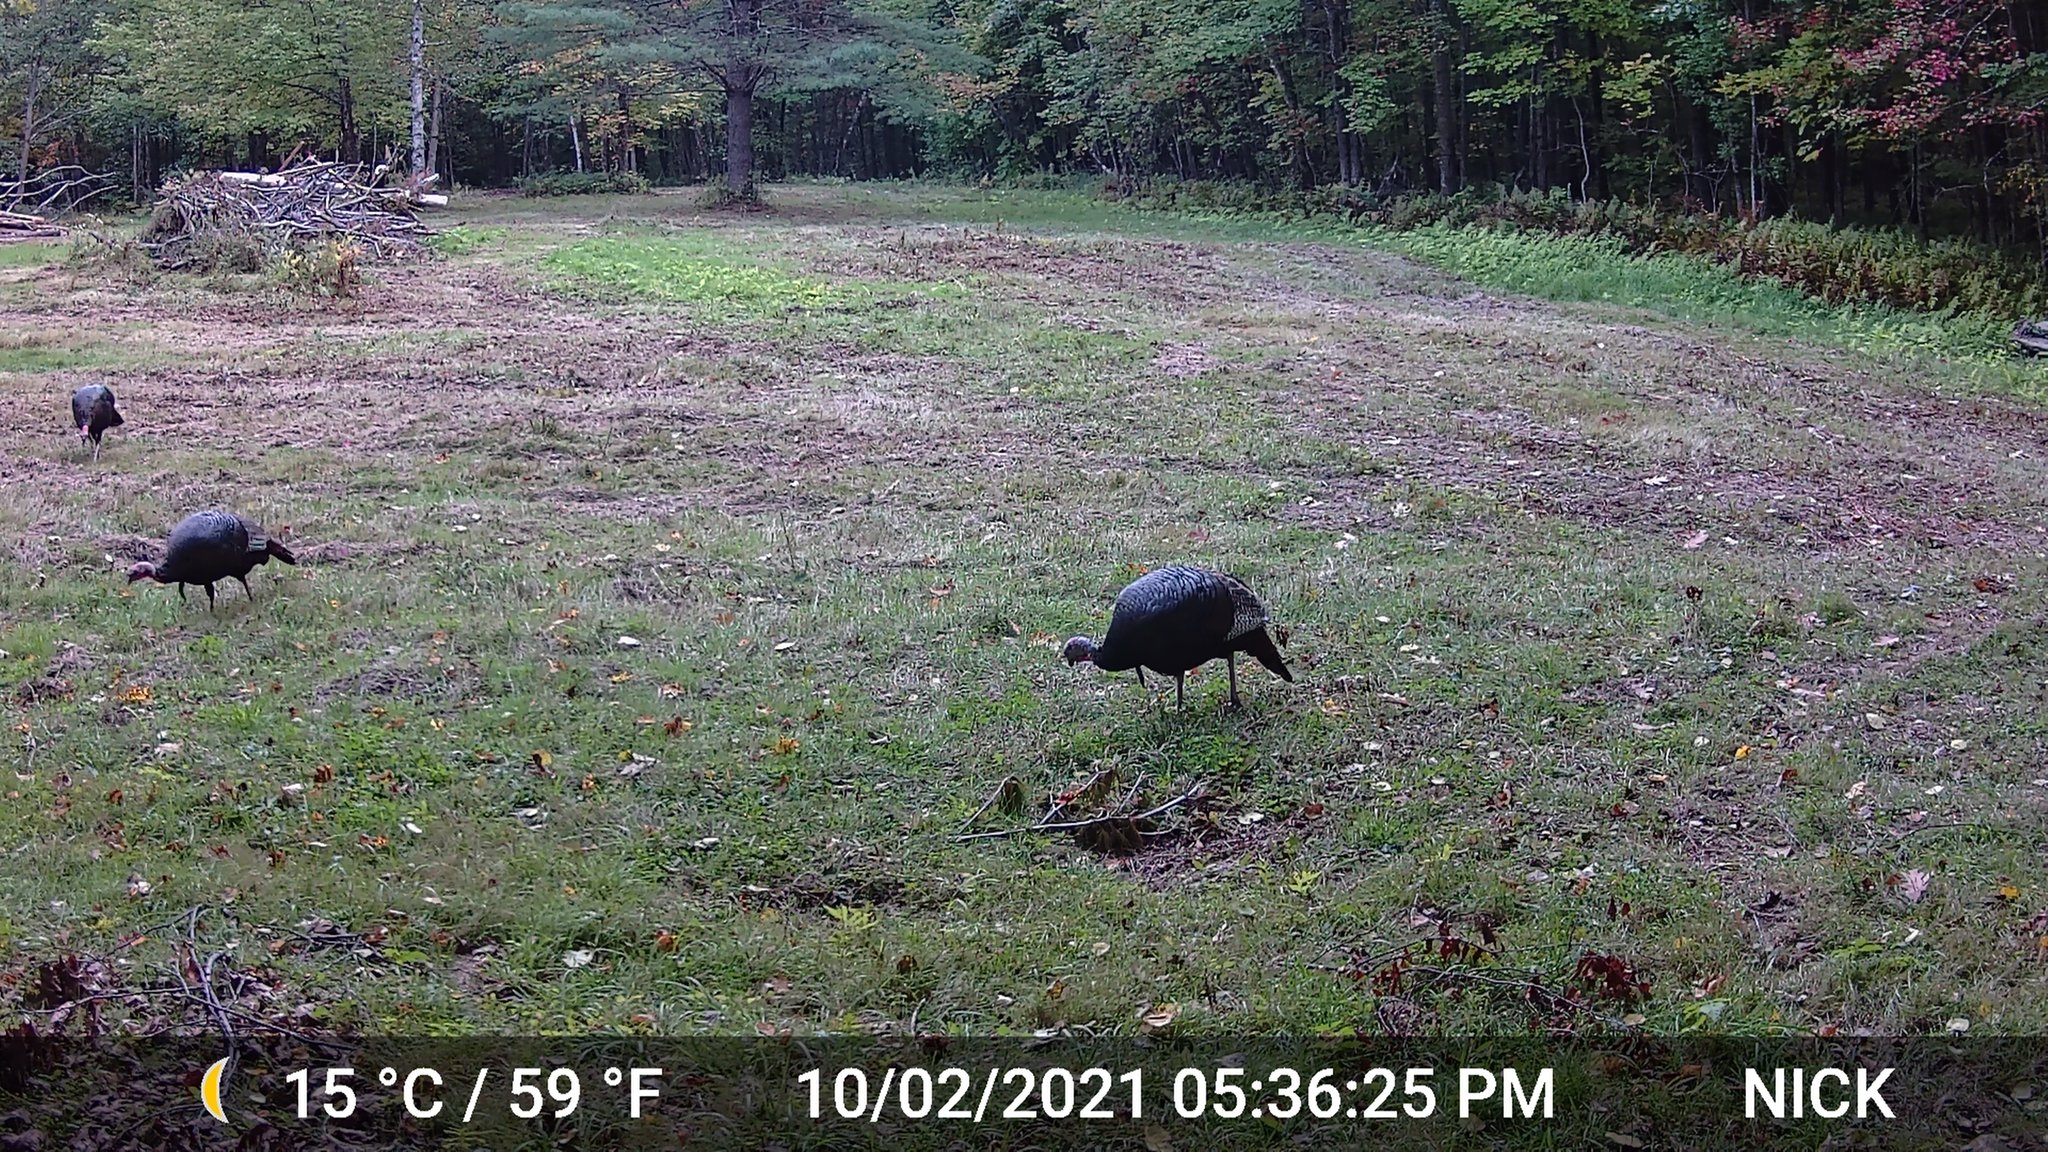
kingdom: Animalia
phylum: Chordata
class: Aves
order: Galliformes
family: Phasianidae
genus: Meleagris
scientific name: Meleagris gallopavo
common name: Wild turkey
